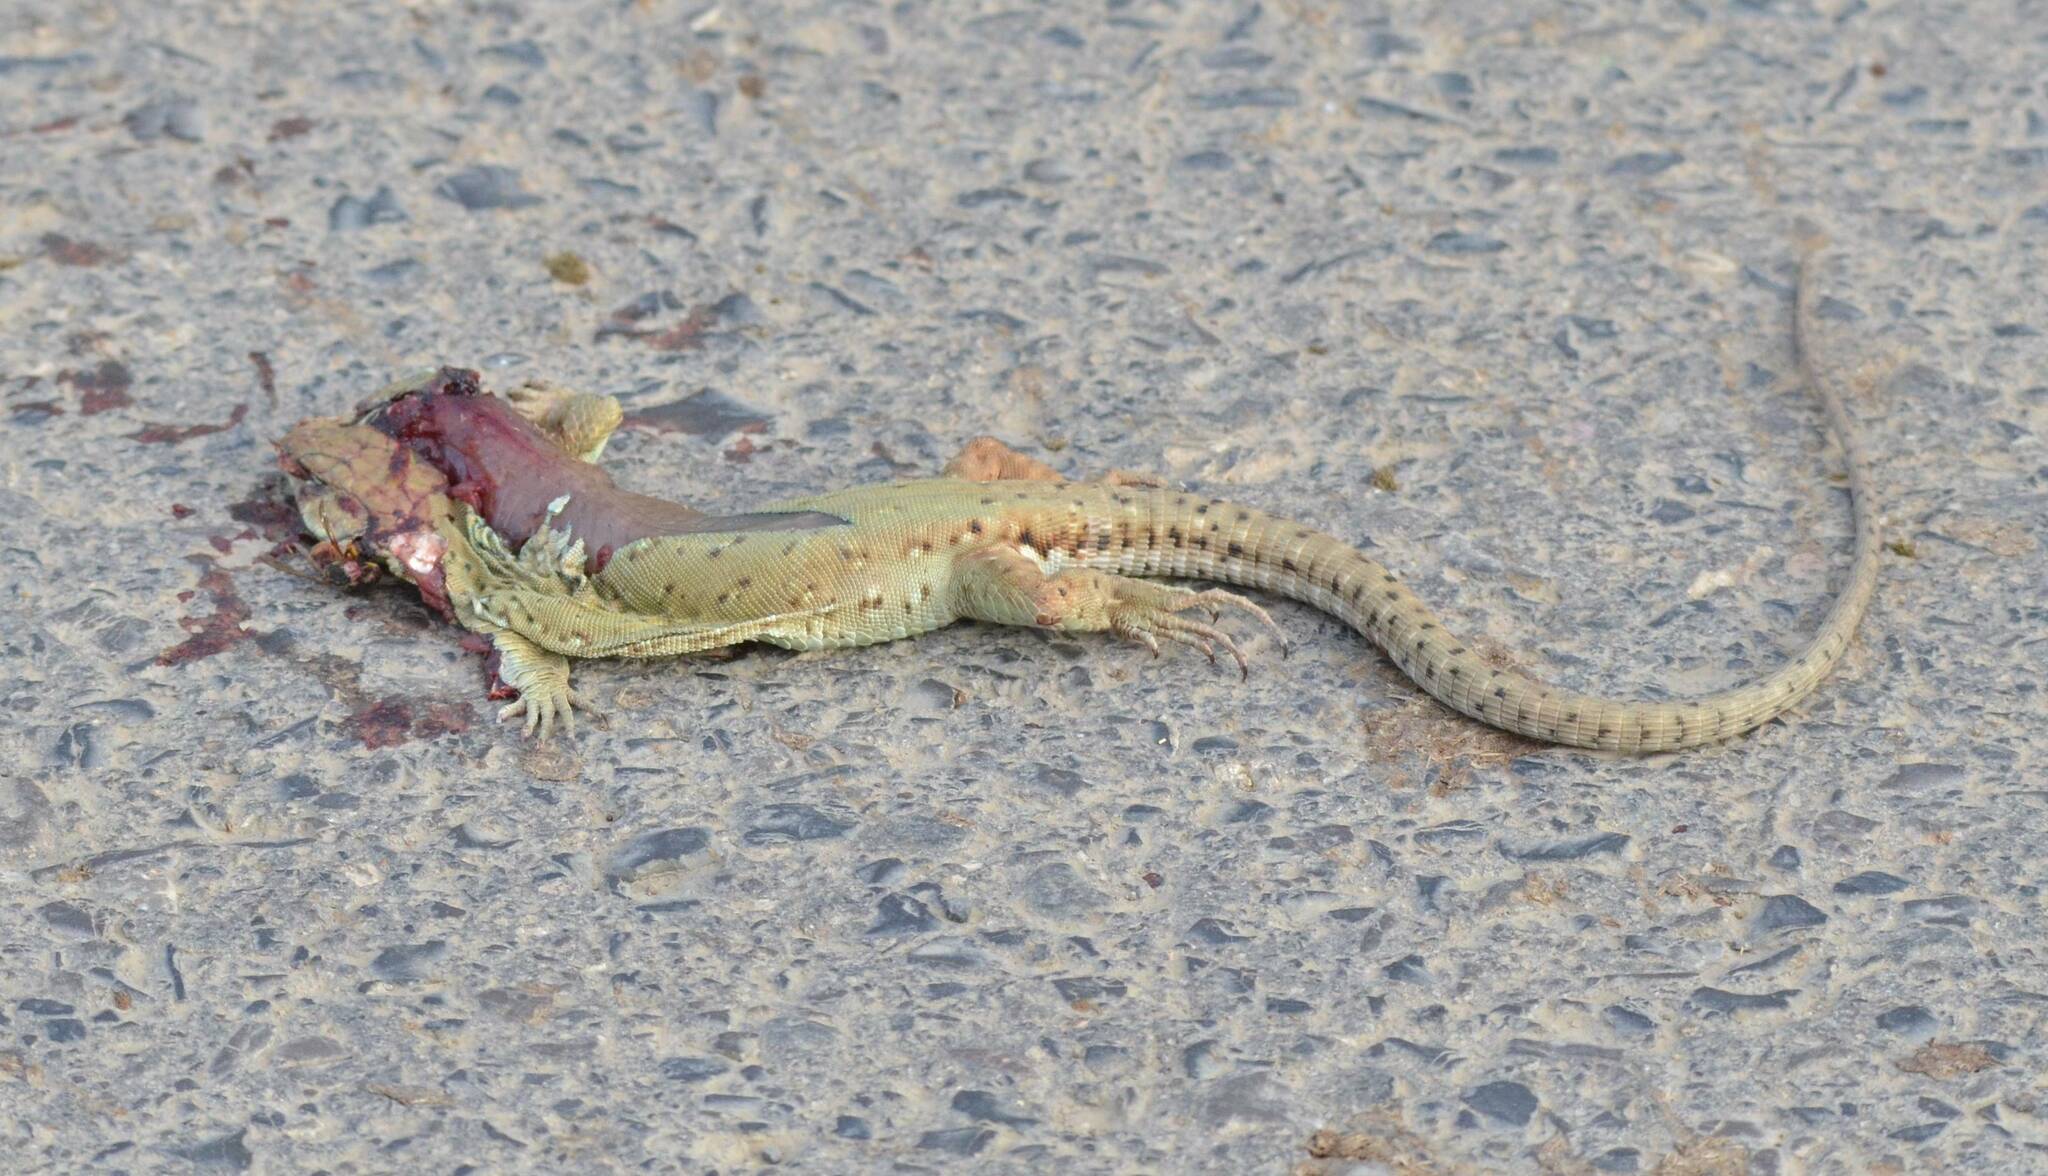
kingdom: Animalia
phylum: Chordata
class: Squamata
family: Lacertidae
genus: Timon
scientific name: Timon pater
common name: North african ocellated lizard
